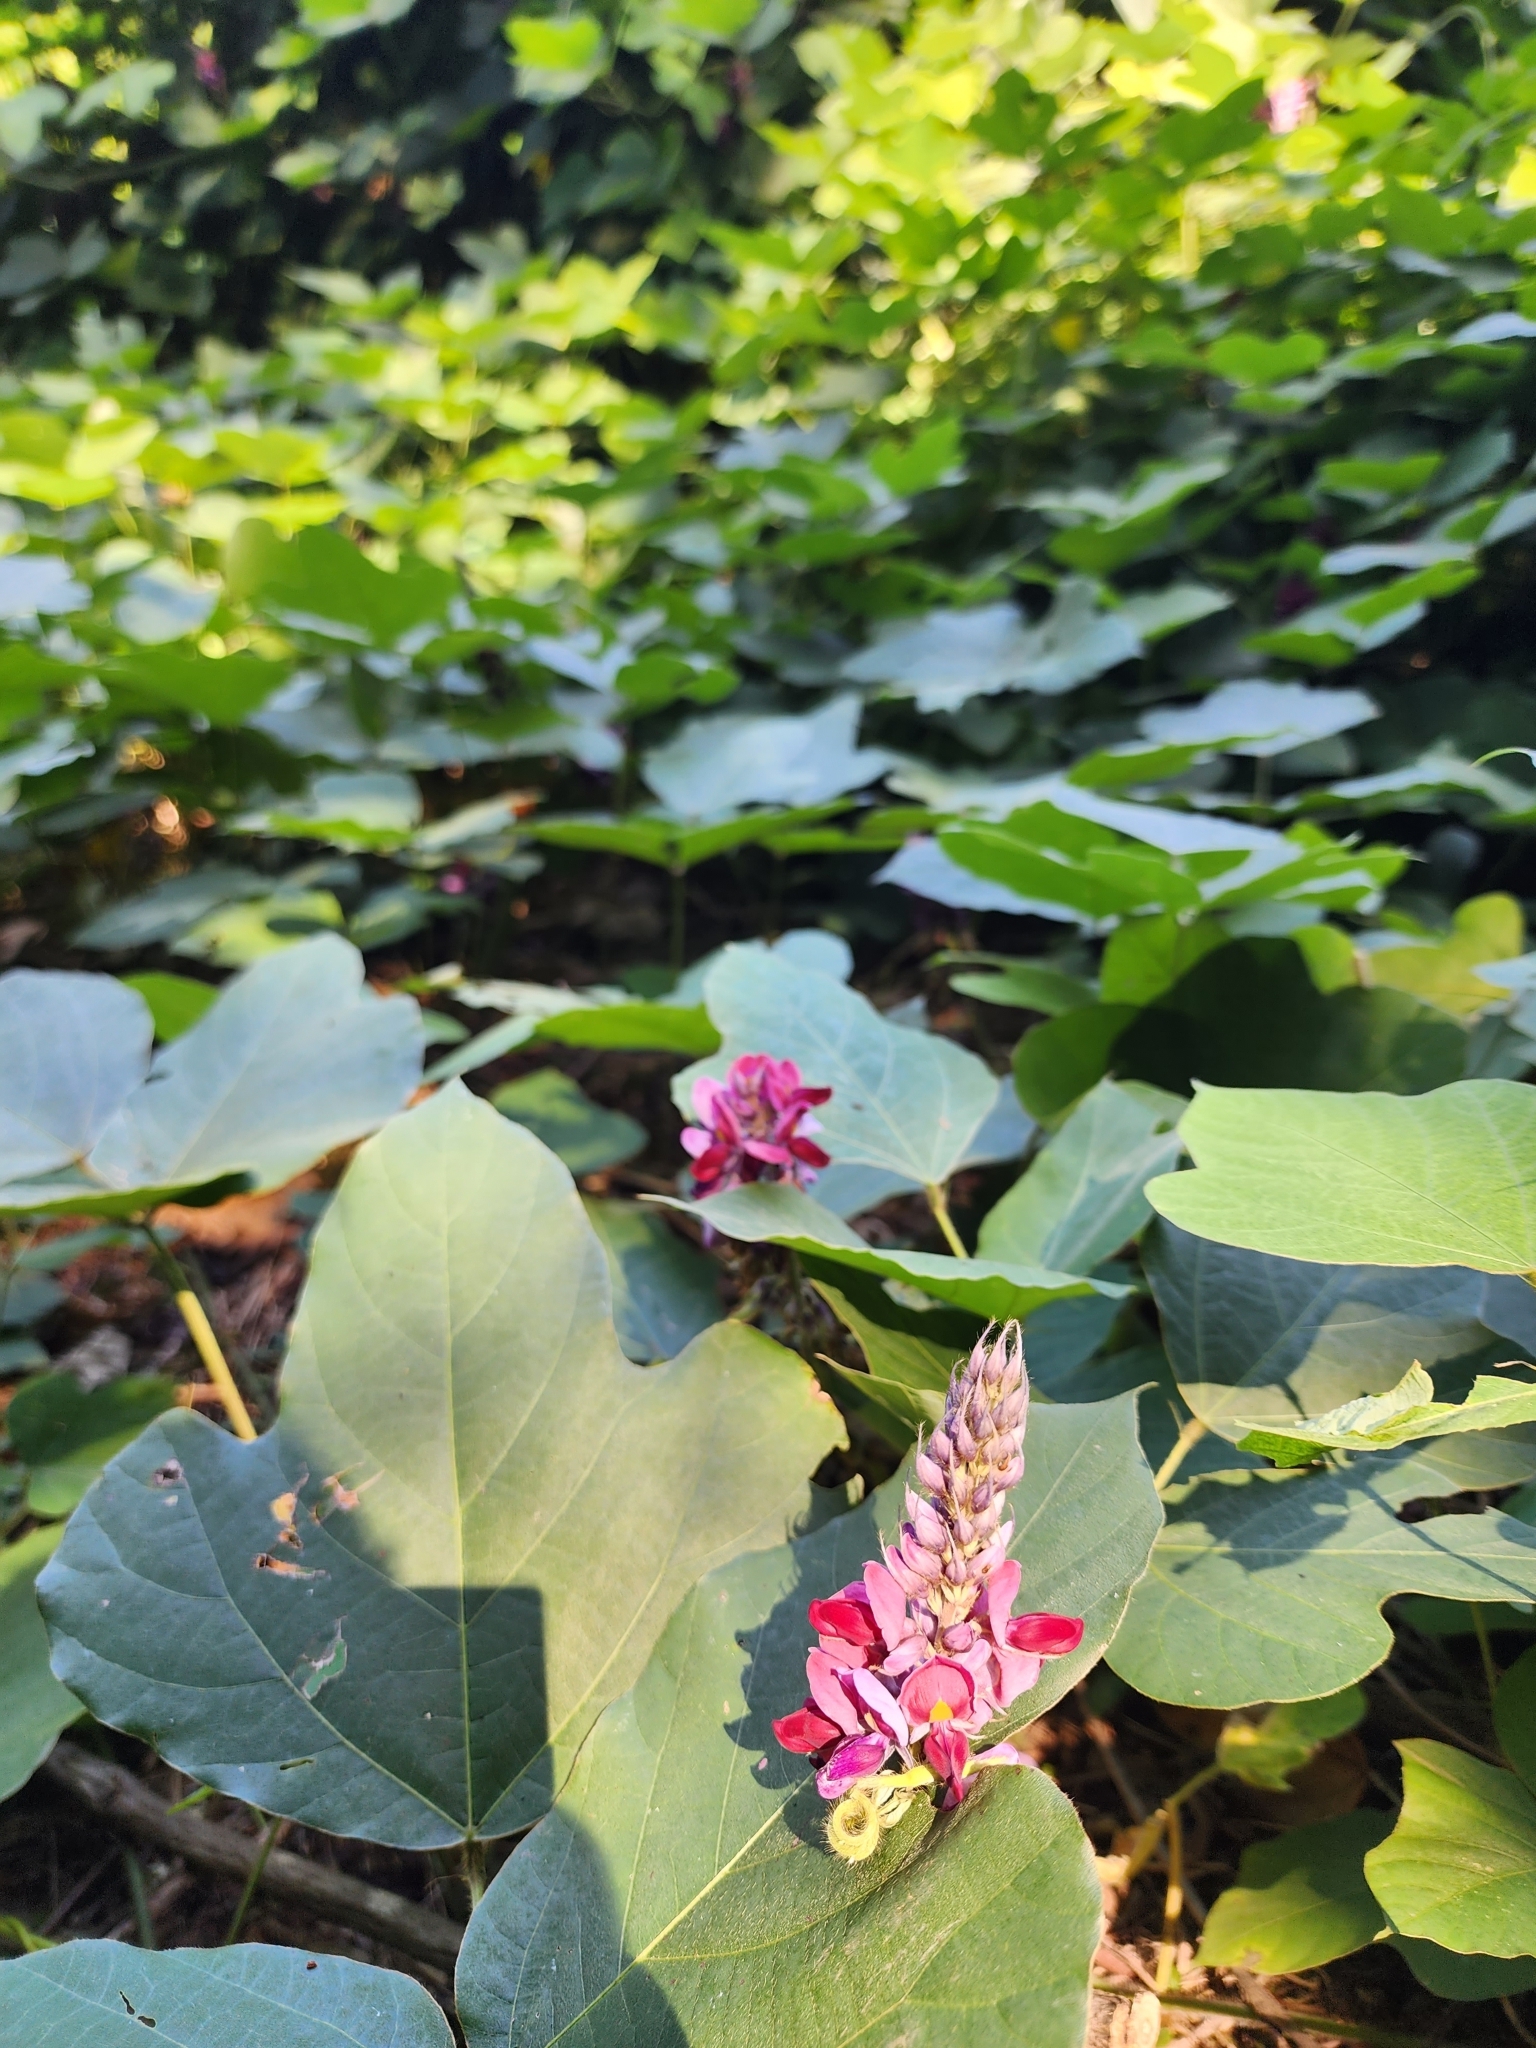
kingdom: Plantae
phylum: Tracheophyta
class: Magnoliopsida
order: Fabales
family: Fabaceae
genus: Pueraria
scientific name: Pueraria montana
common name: Kudzu
